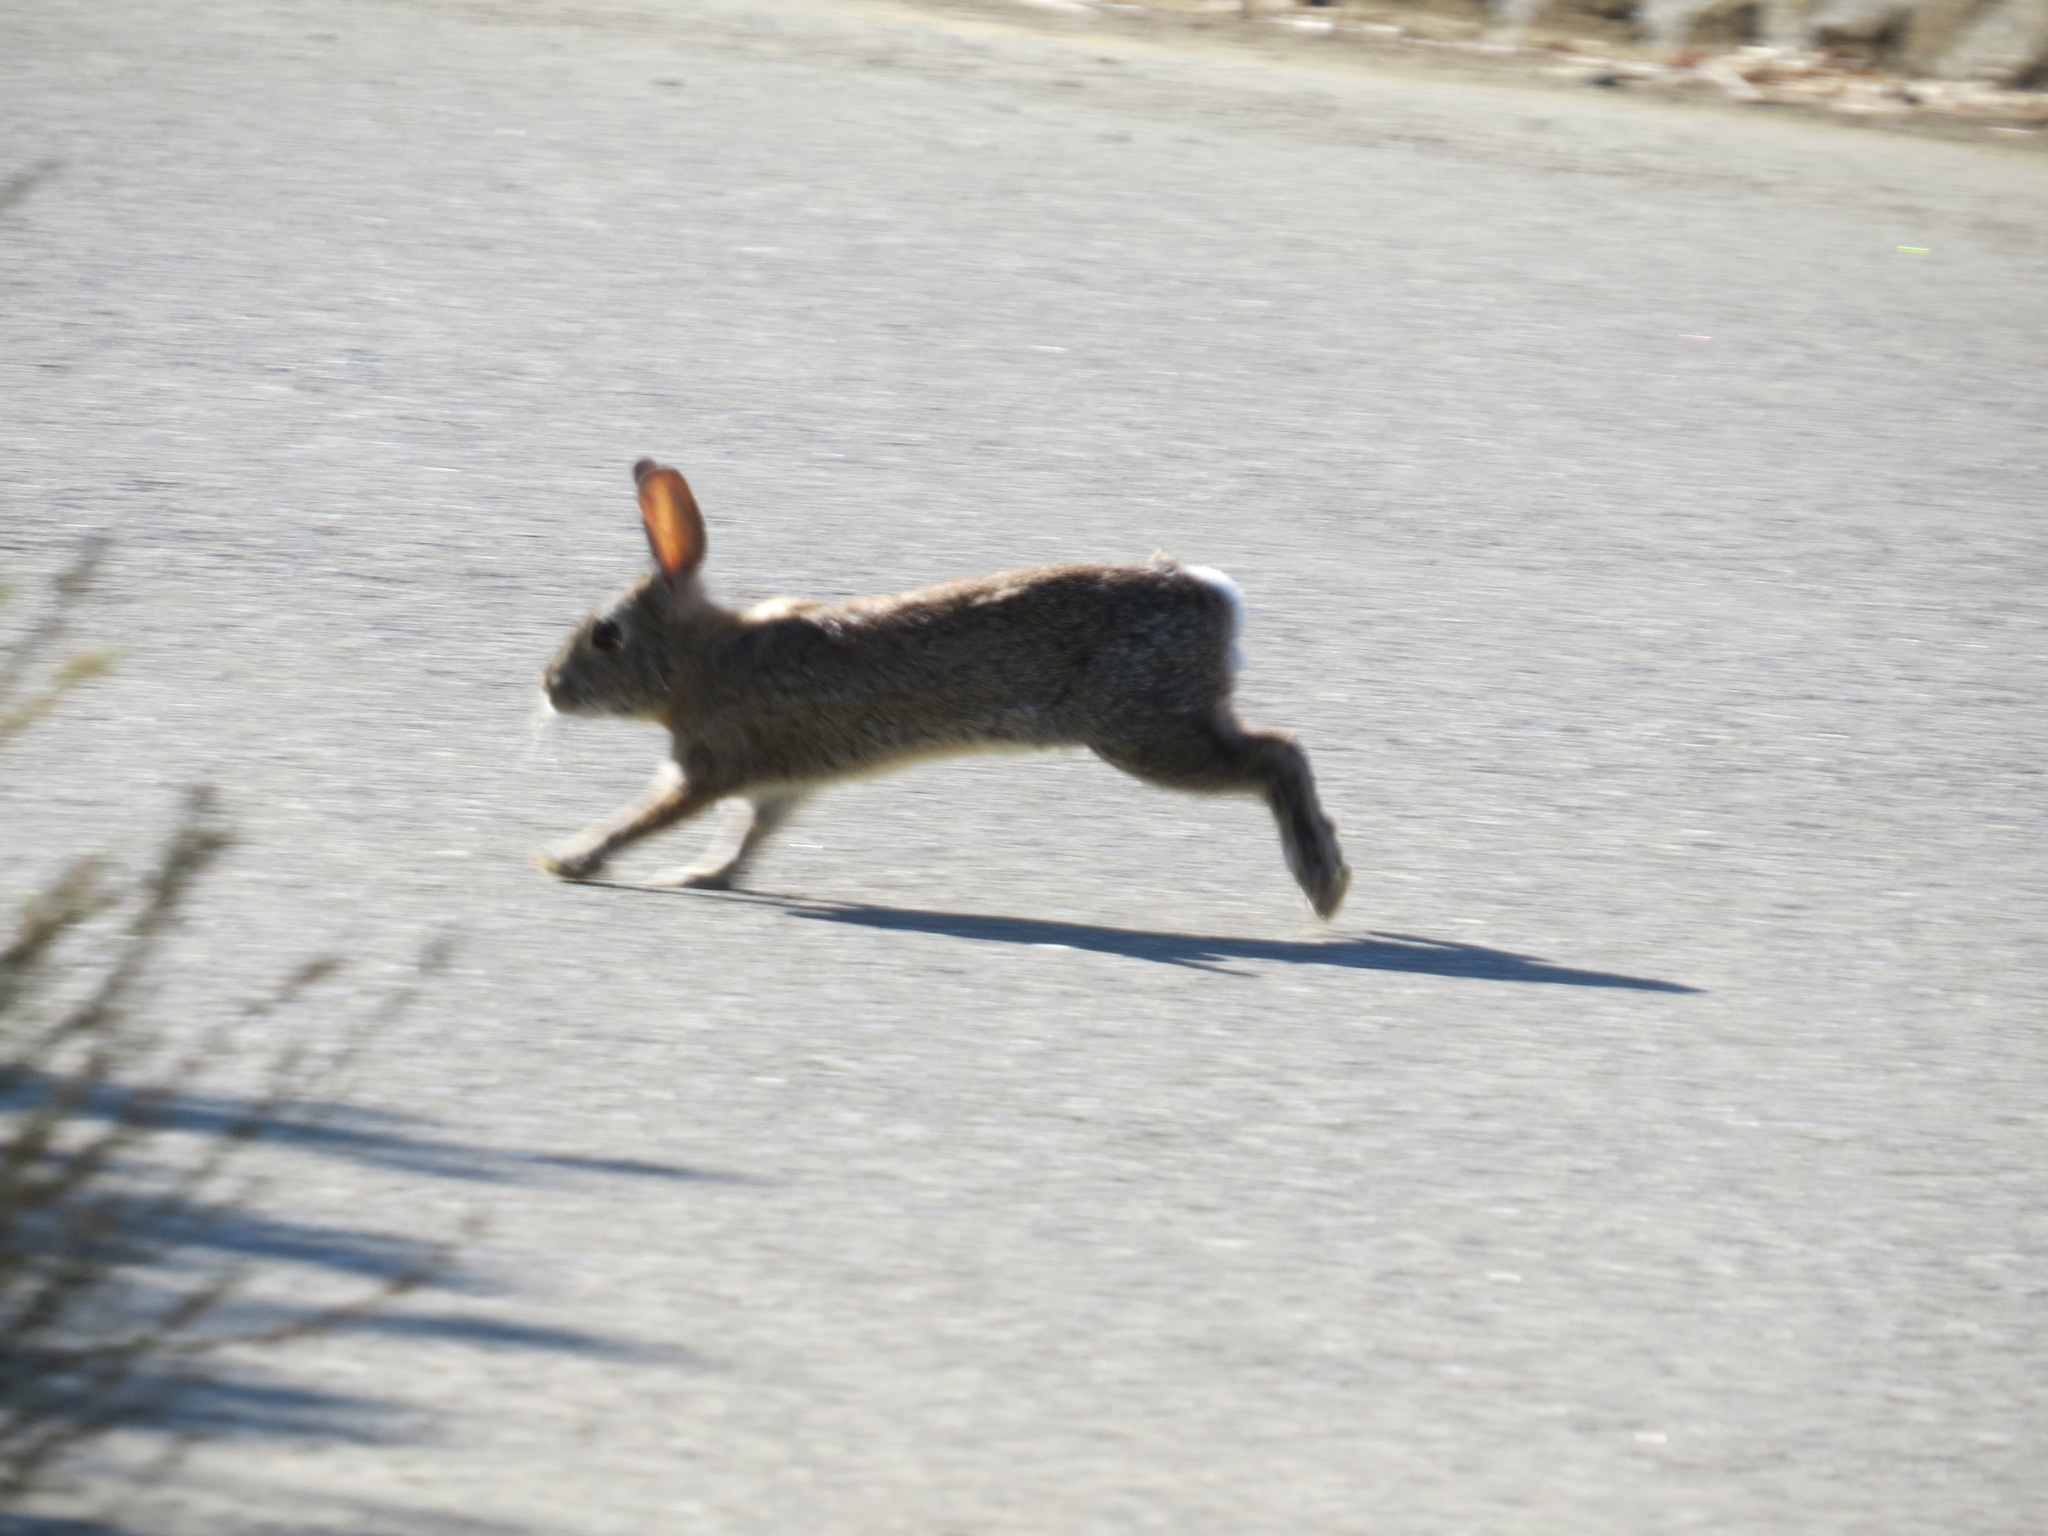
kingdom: Animalia
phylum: Chordata
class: Mammalia
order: Lagomorpha
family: Leporidae
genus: Sylvilagus
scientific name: Sylvilagus bachmani
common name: Brush rabbit
